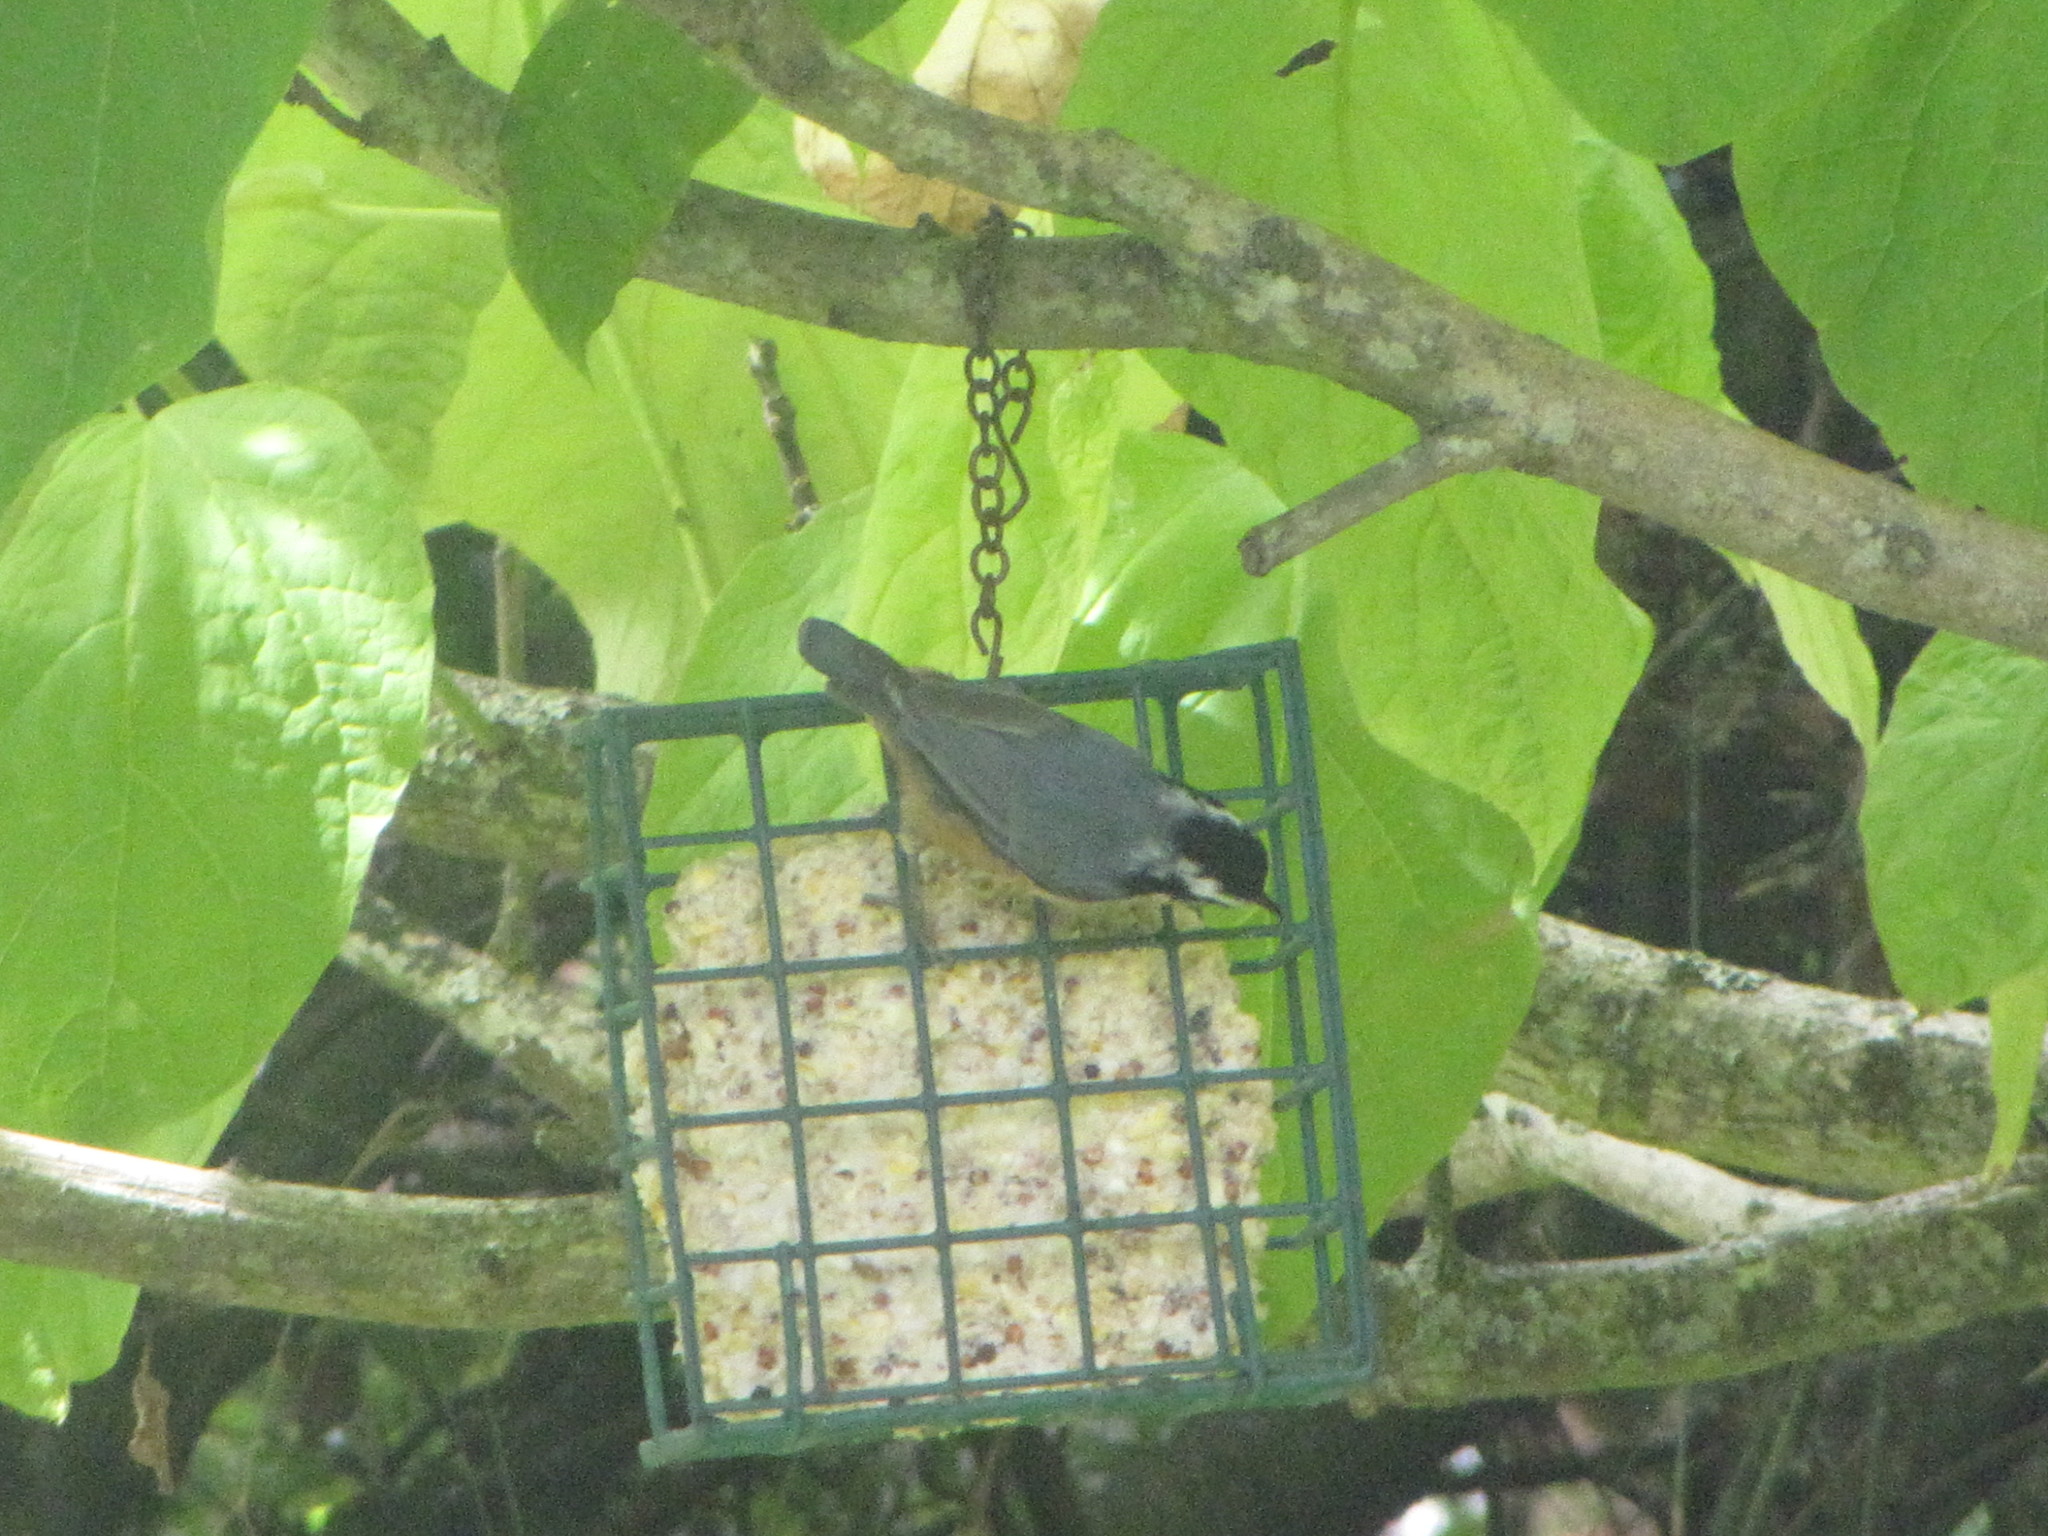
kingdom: Animalia
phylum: Chordata
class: Aves
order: Passeriformes
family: Sittidae
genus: Sitta
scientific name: Sitta canadensis
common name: Red-breasted nuthatch
